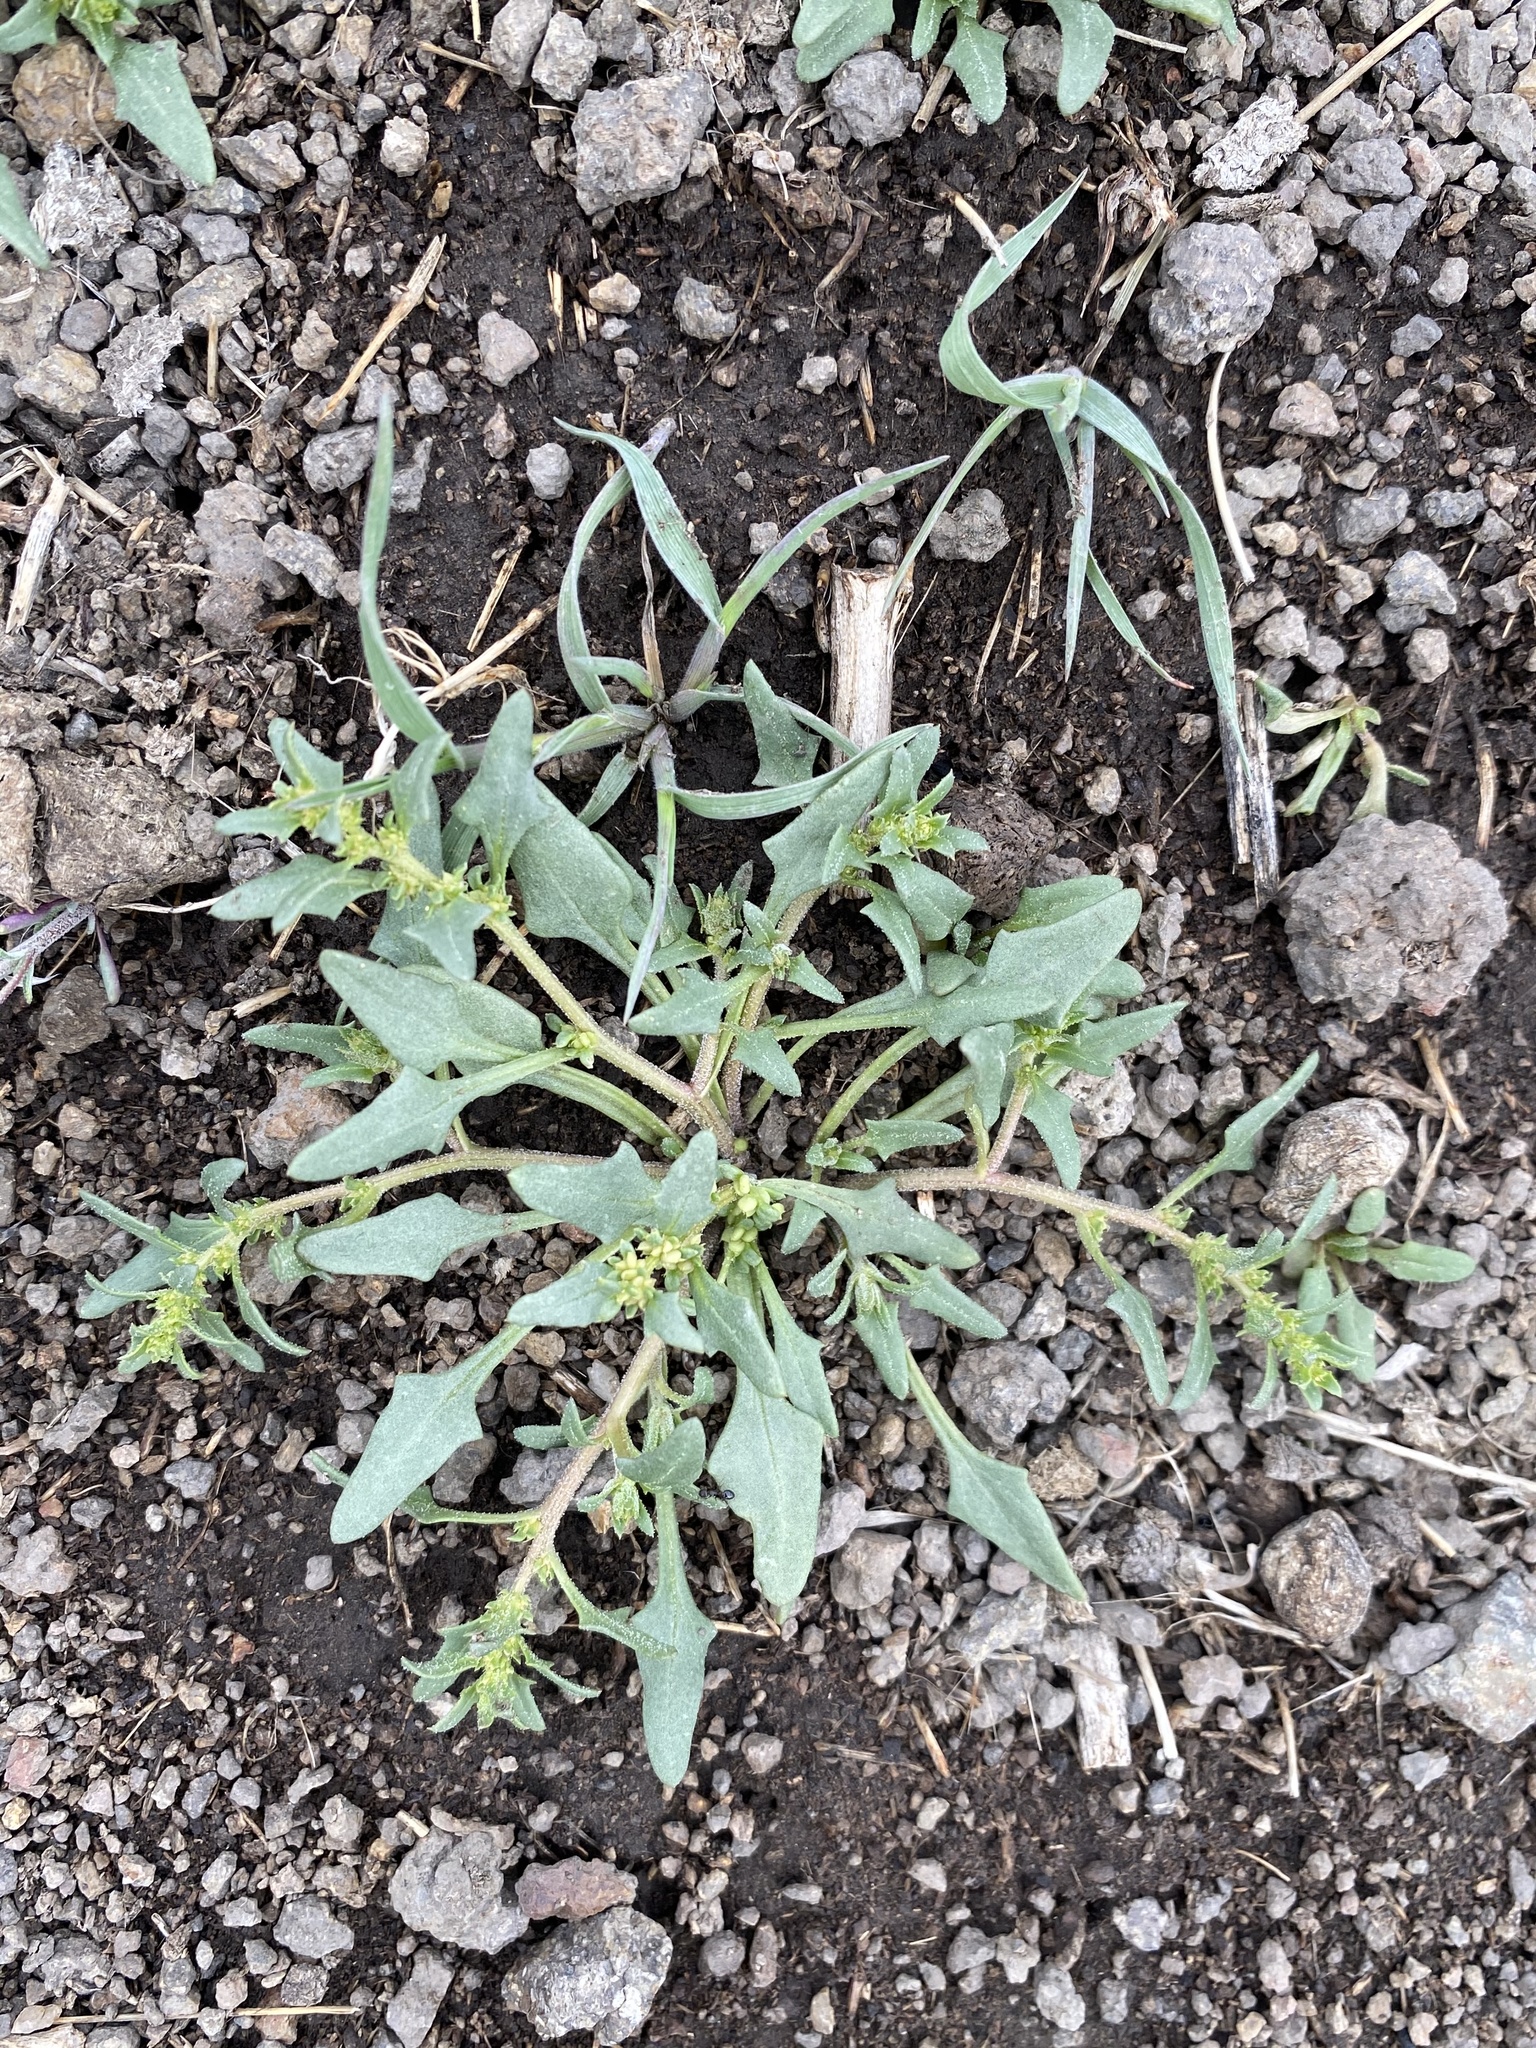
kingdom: Plantae
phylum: Tracheophyta
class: Magnoliopsida
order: Caryophyllales
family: Amaranthaceae
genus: Blitum
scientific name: Blitum nuttallianum
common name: Poverty-weed
